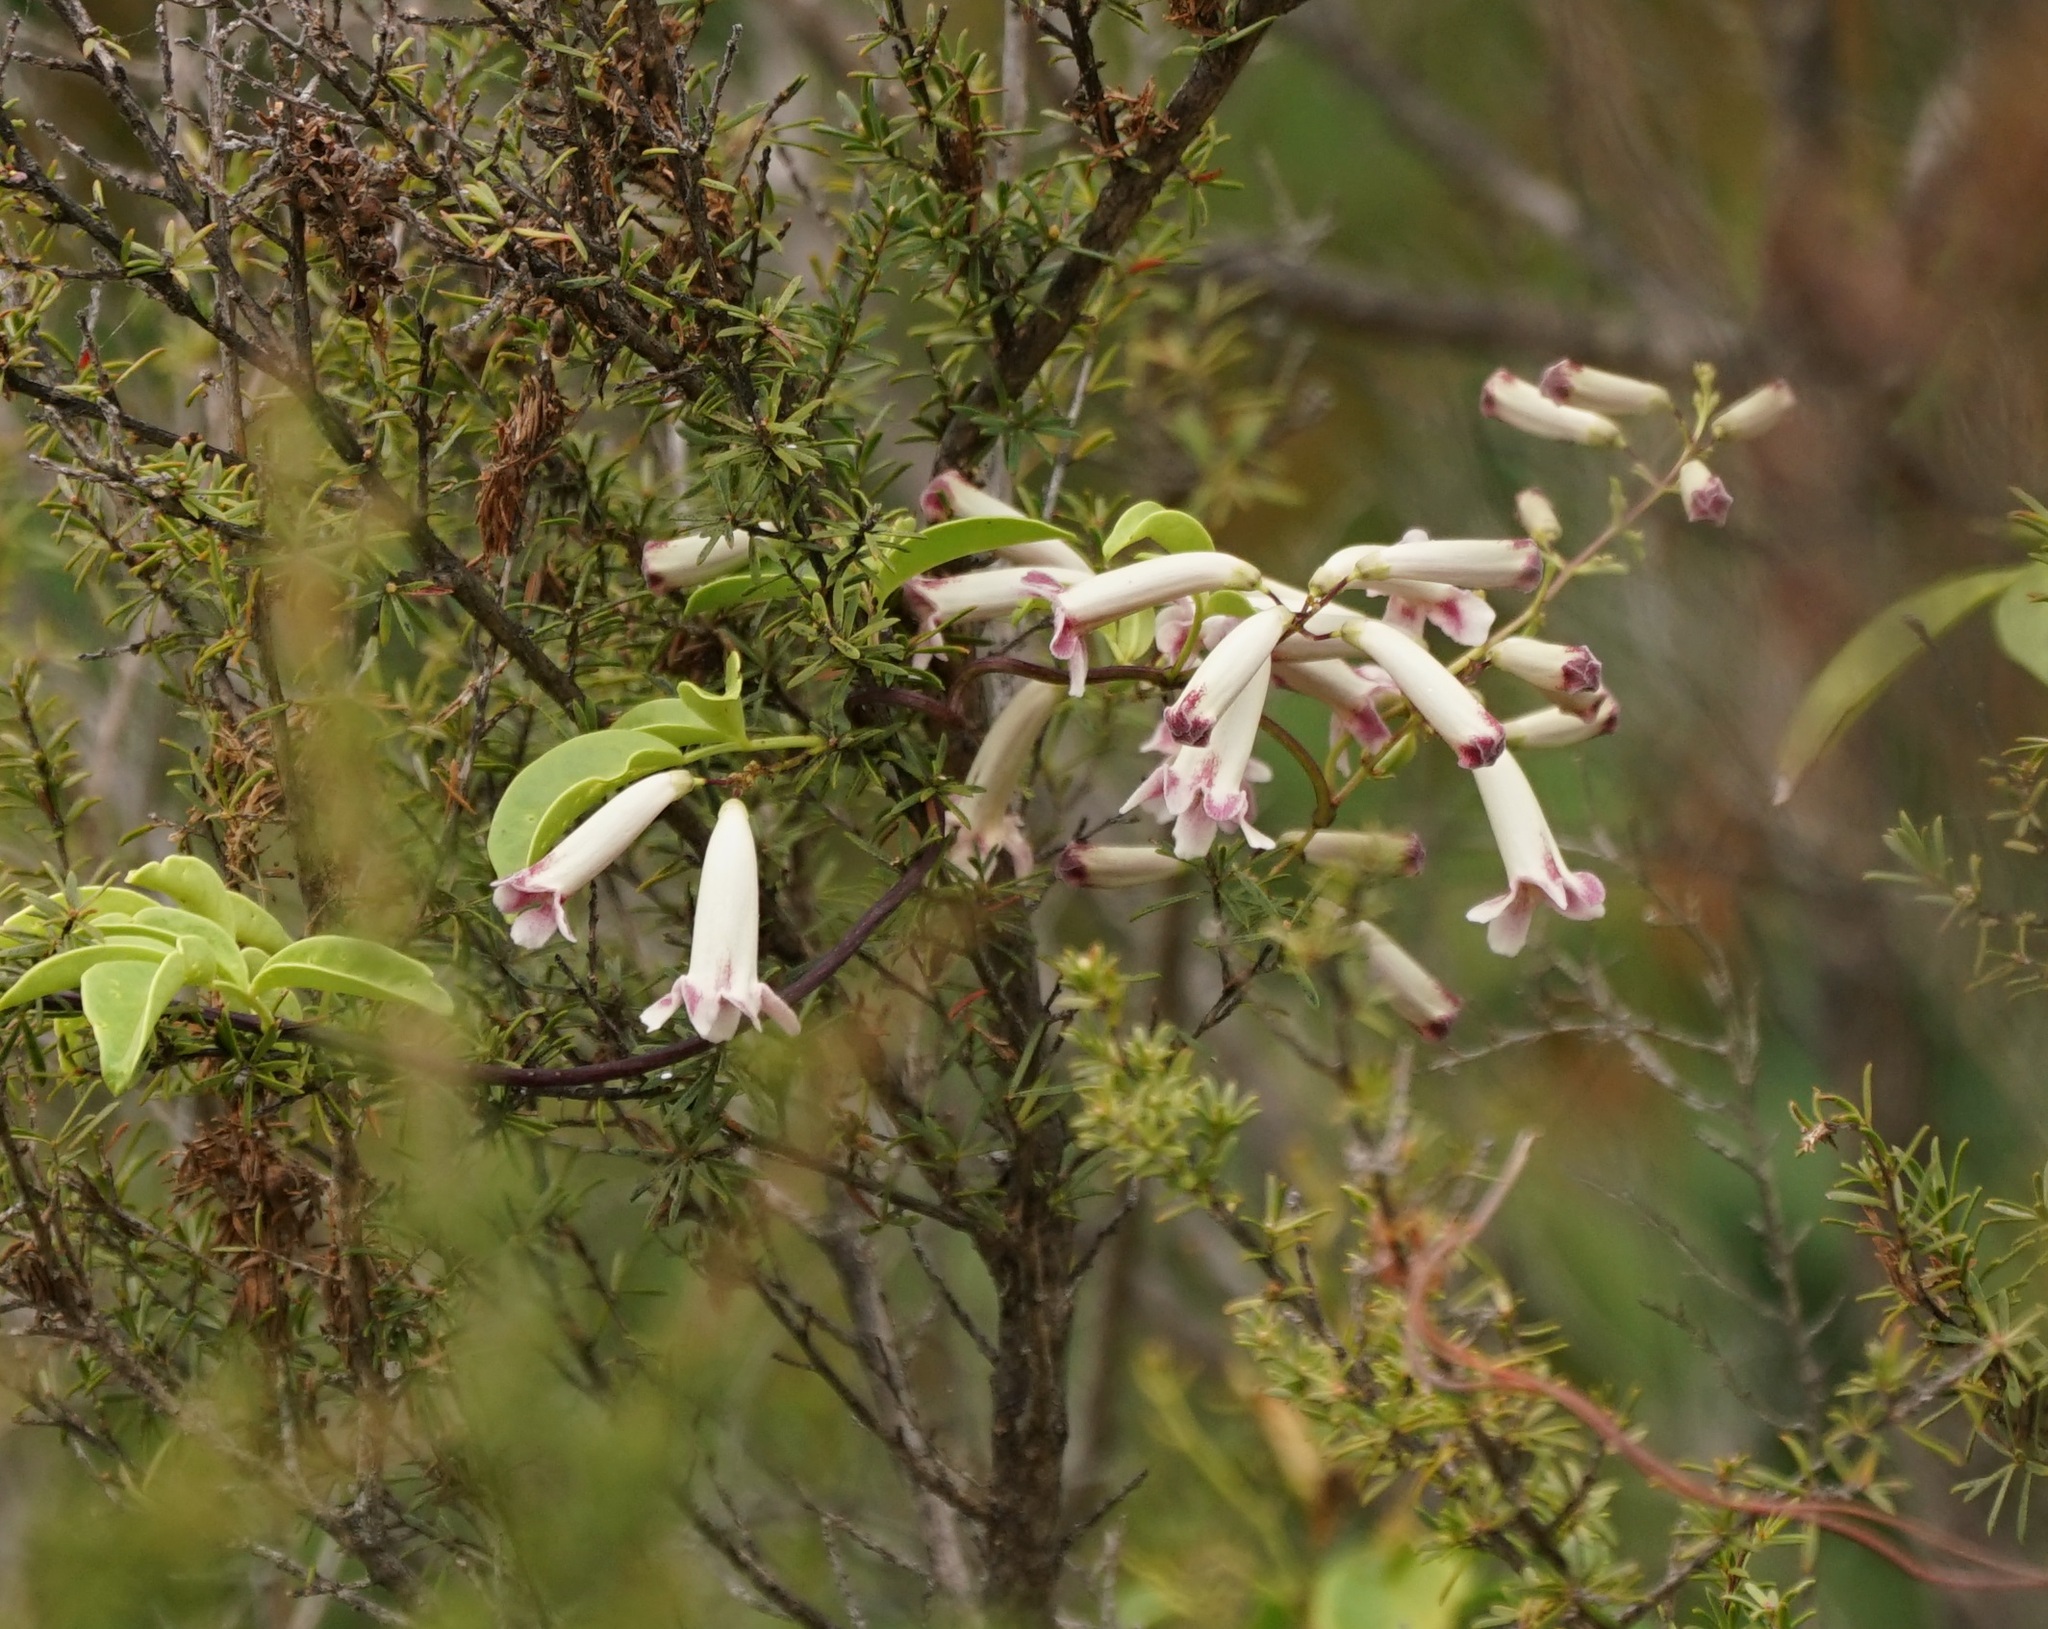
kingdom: Plantae
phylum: Tracheophyta
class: Magnoliopsida
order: Lamiales
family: Bignoniaceae
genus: Pandorea
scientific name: Pandorea pandorana
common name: Wonga-wonga-vine
